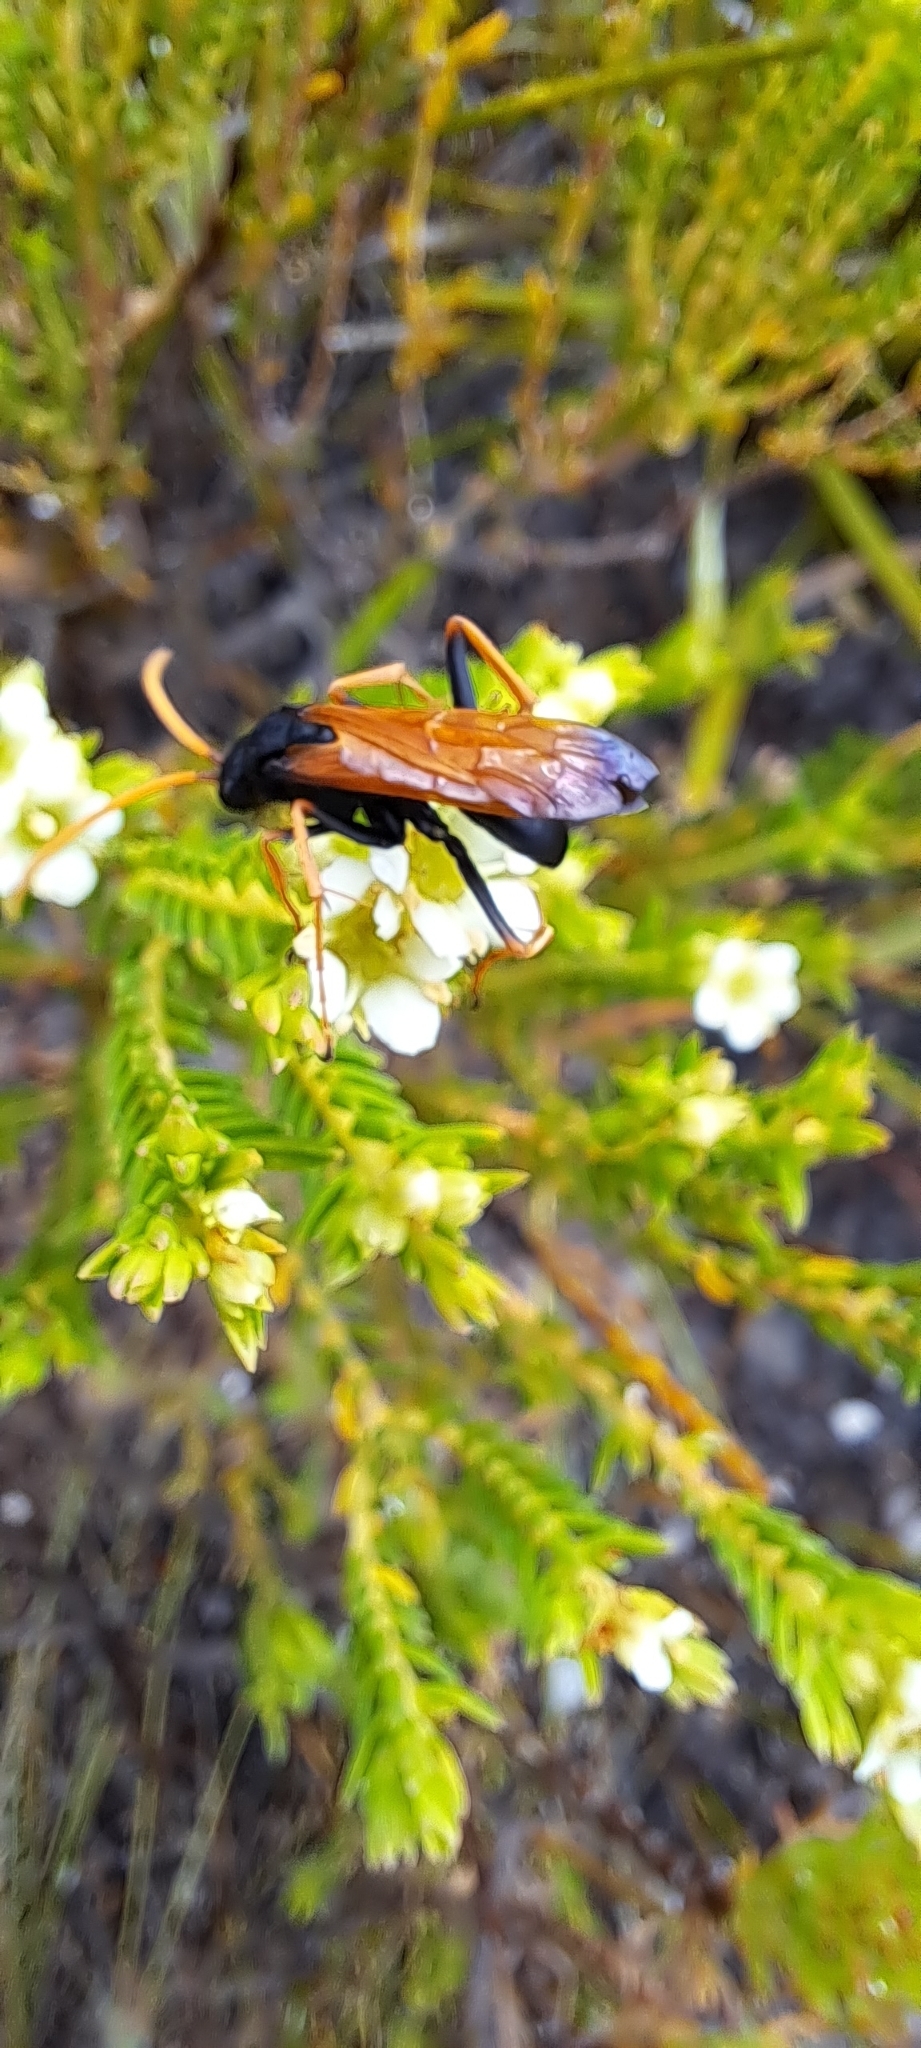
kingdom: Animalia
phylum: Arthropoda
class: Insecta
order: Hymenoptera
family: Pompilidae
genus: Java
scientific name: Java caroliwaterhousei
